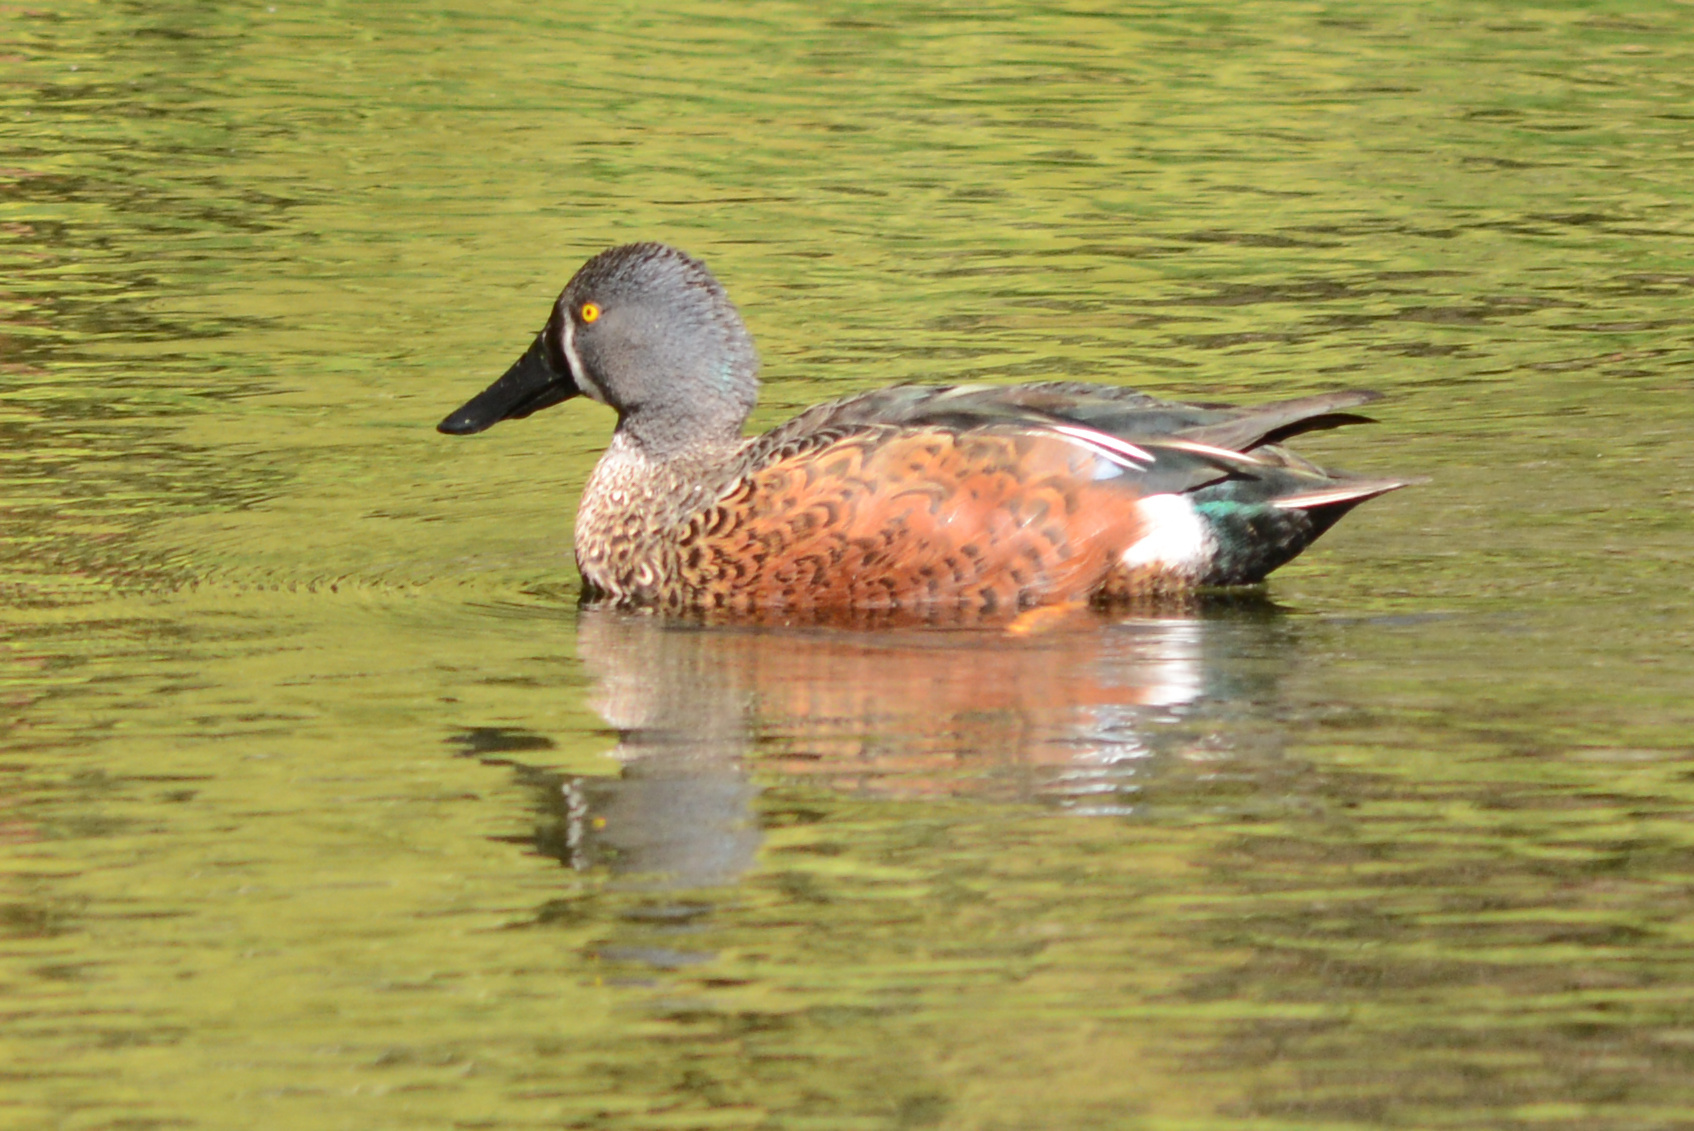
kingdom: Animalia
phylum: Chordata
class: Aves
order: Anseriformes
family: Anatidae
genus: Spatula
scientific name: Spatula rhynchotis
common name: Australian shoveler
